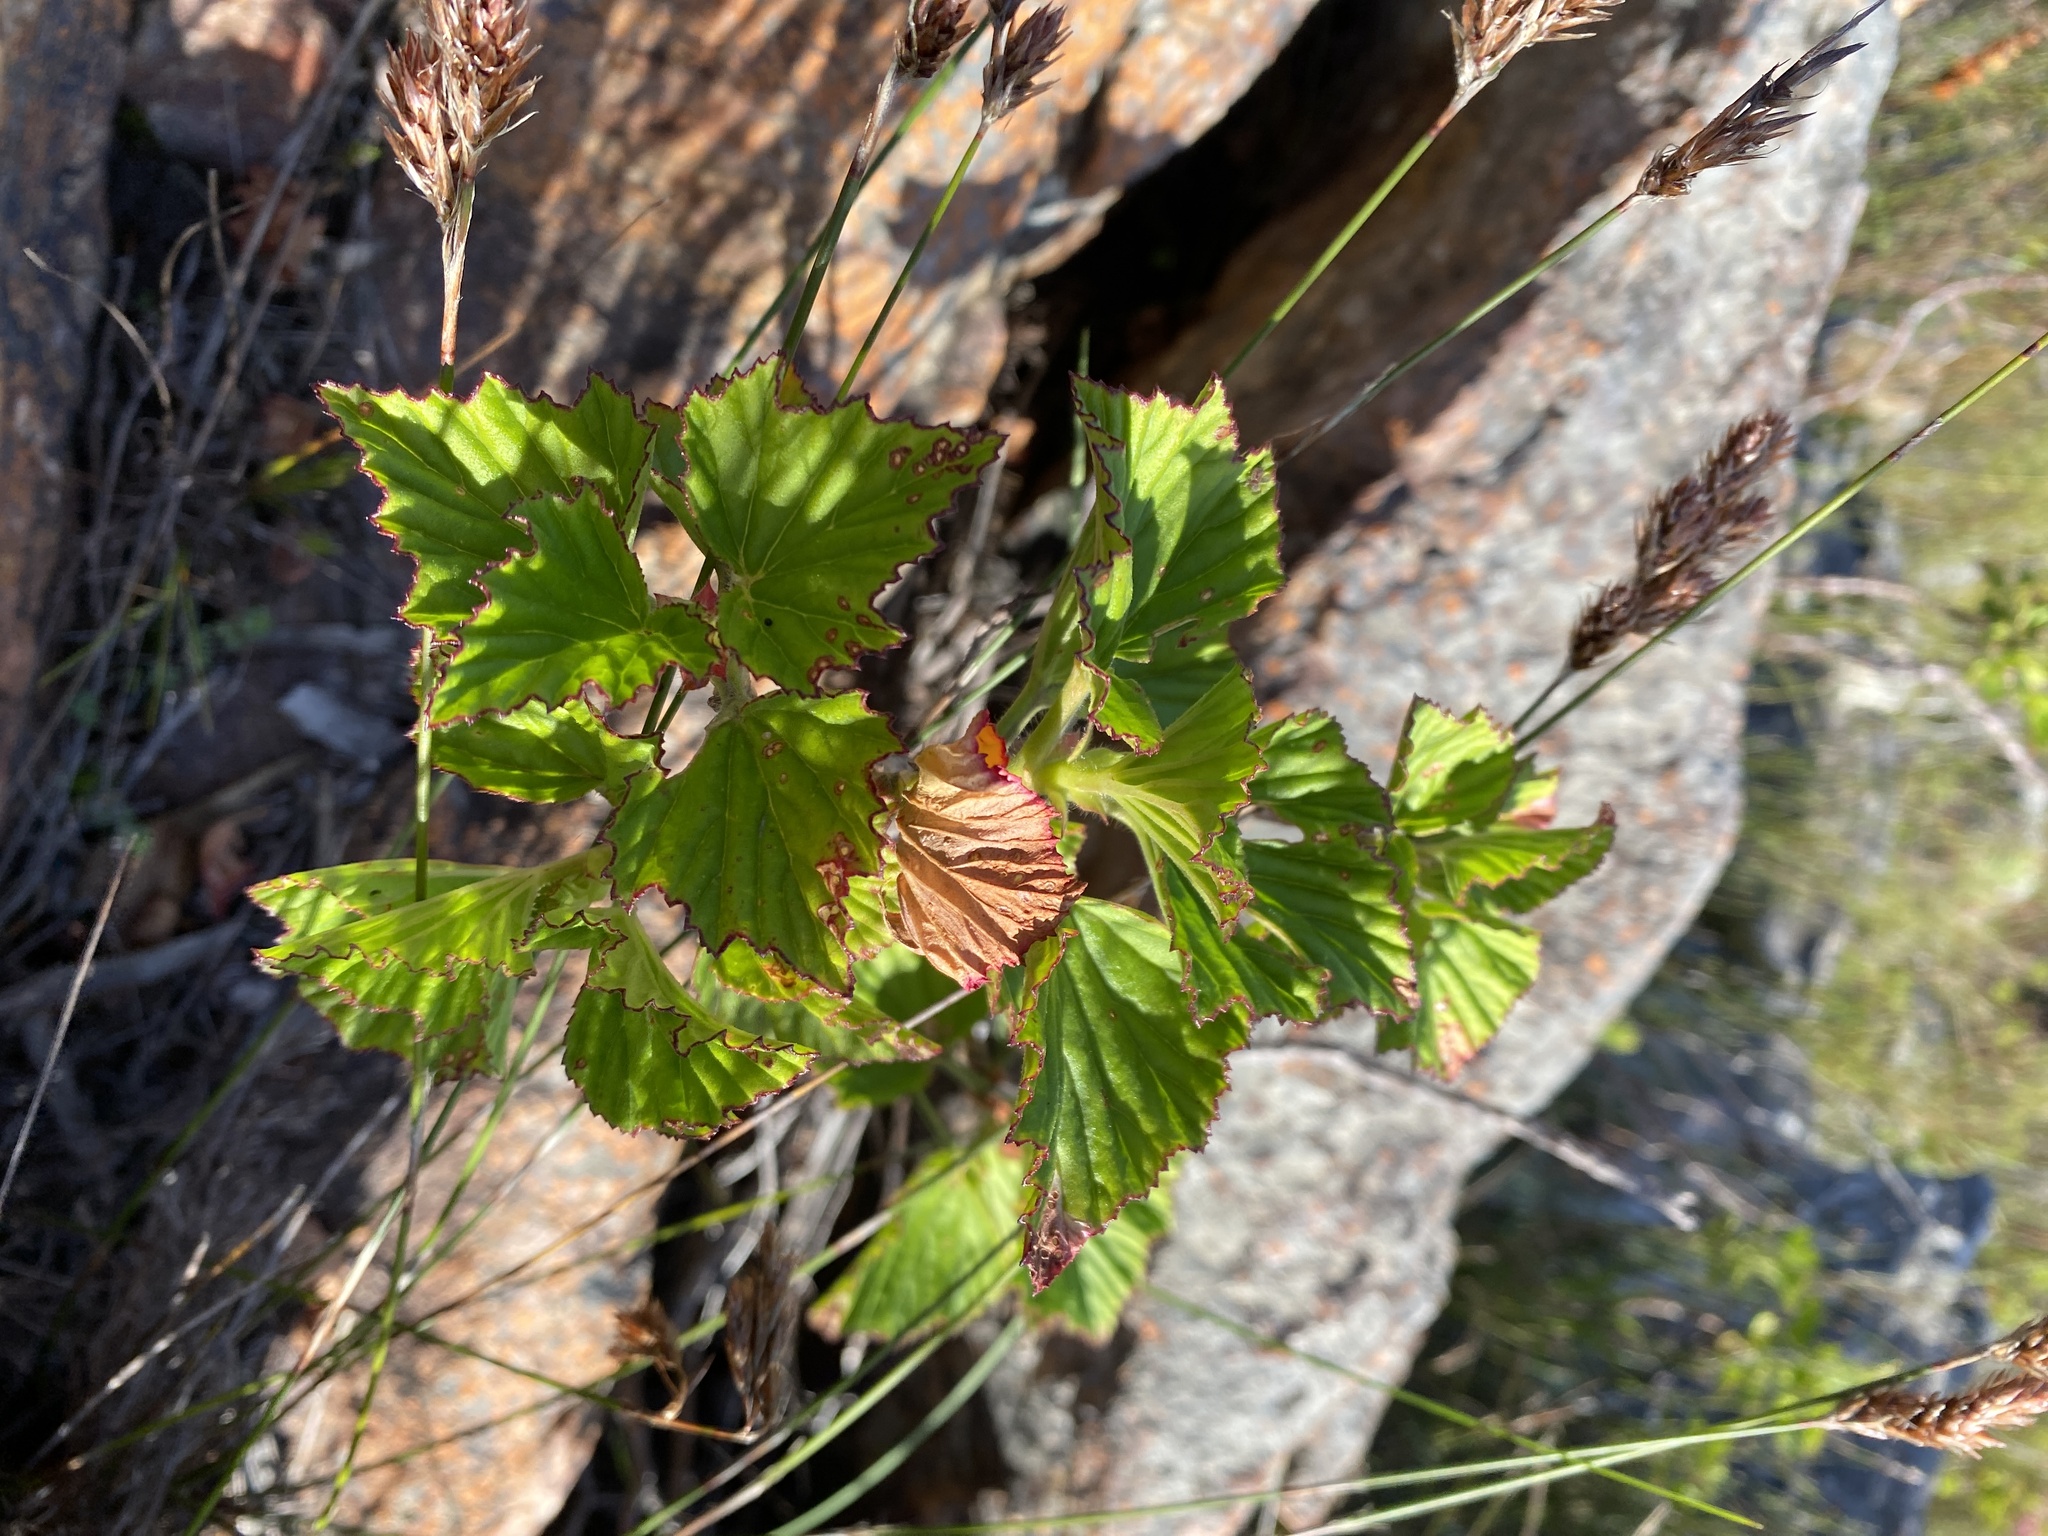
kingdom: Plantae
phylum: Tracheophyta
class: Magnoliopsida
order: Geraniales
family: Geraniaceae
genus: Pelargonium
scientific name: Pelargonium cucullatum
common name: Tree pelargonium
